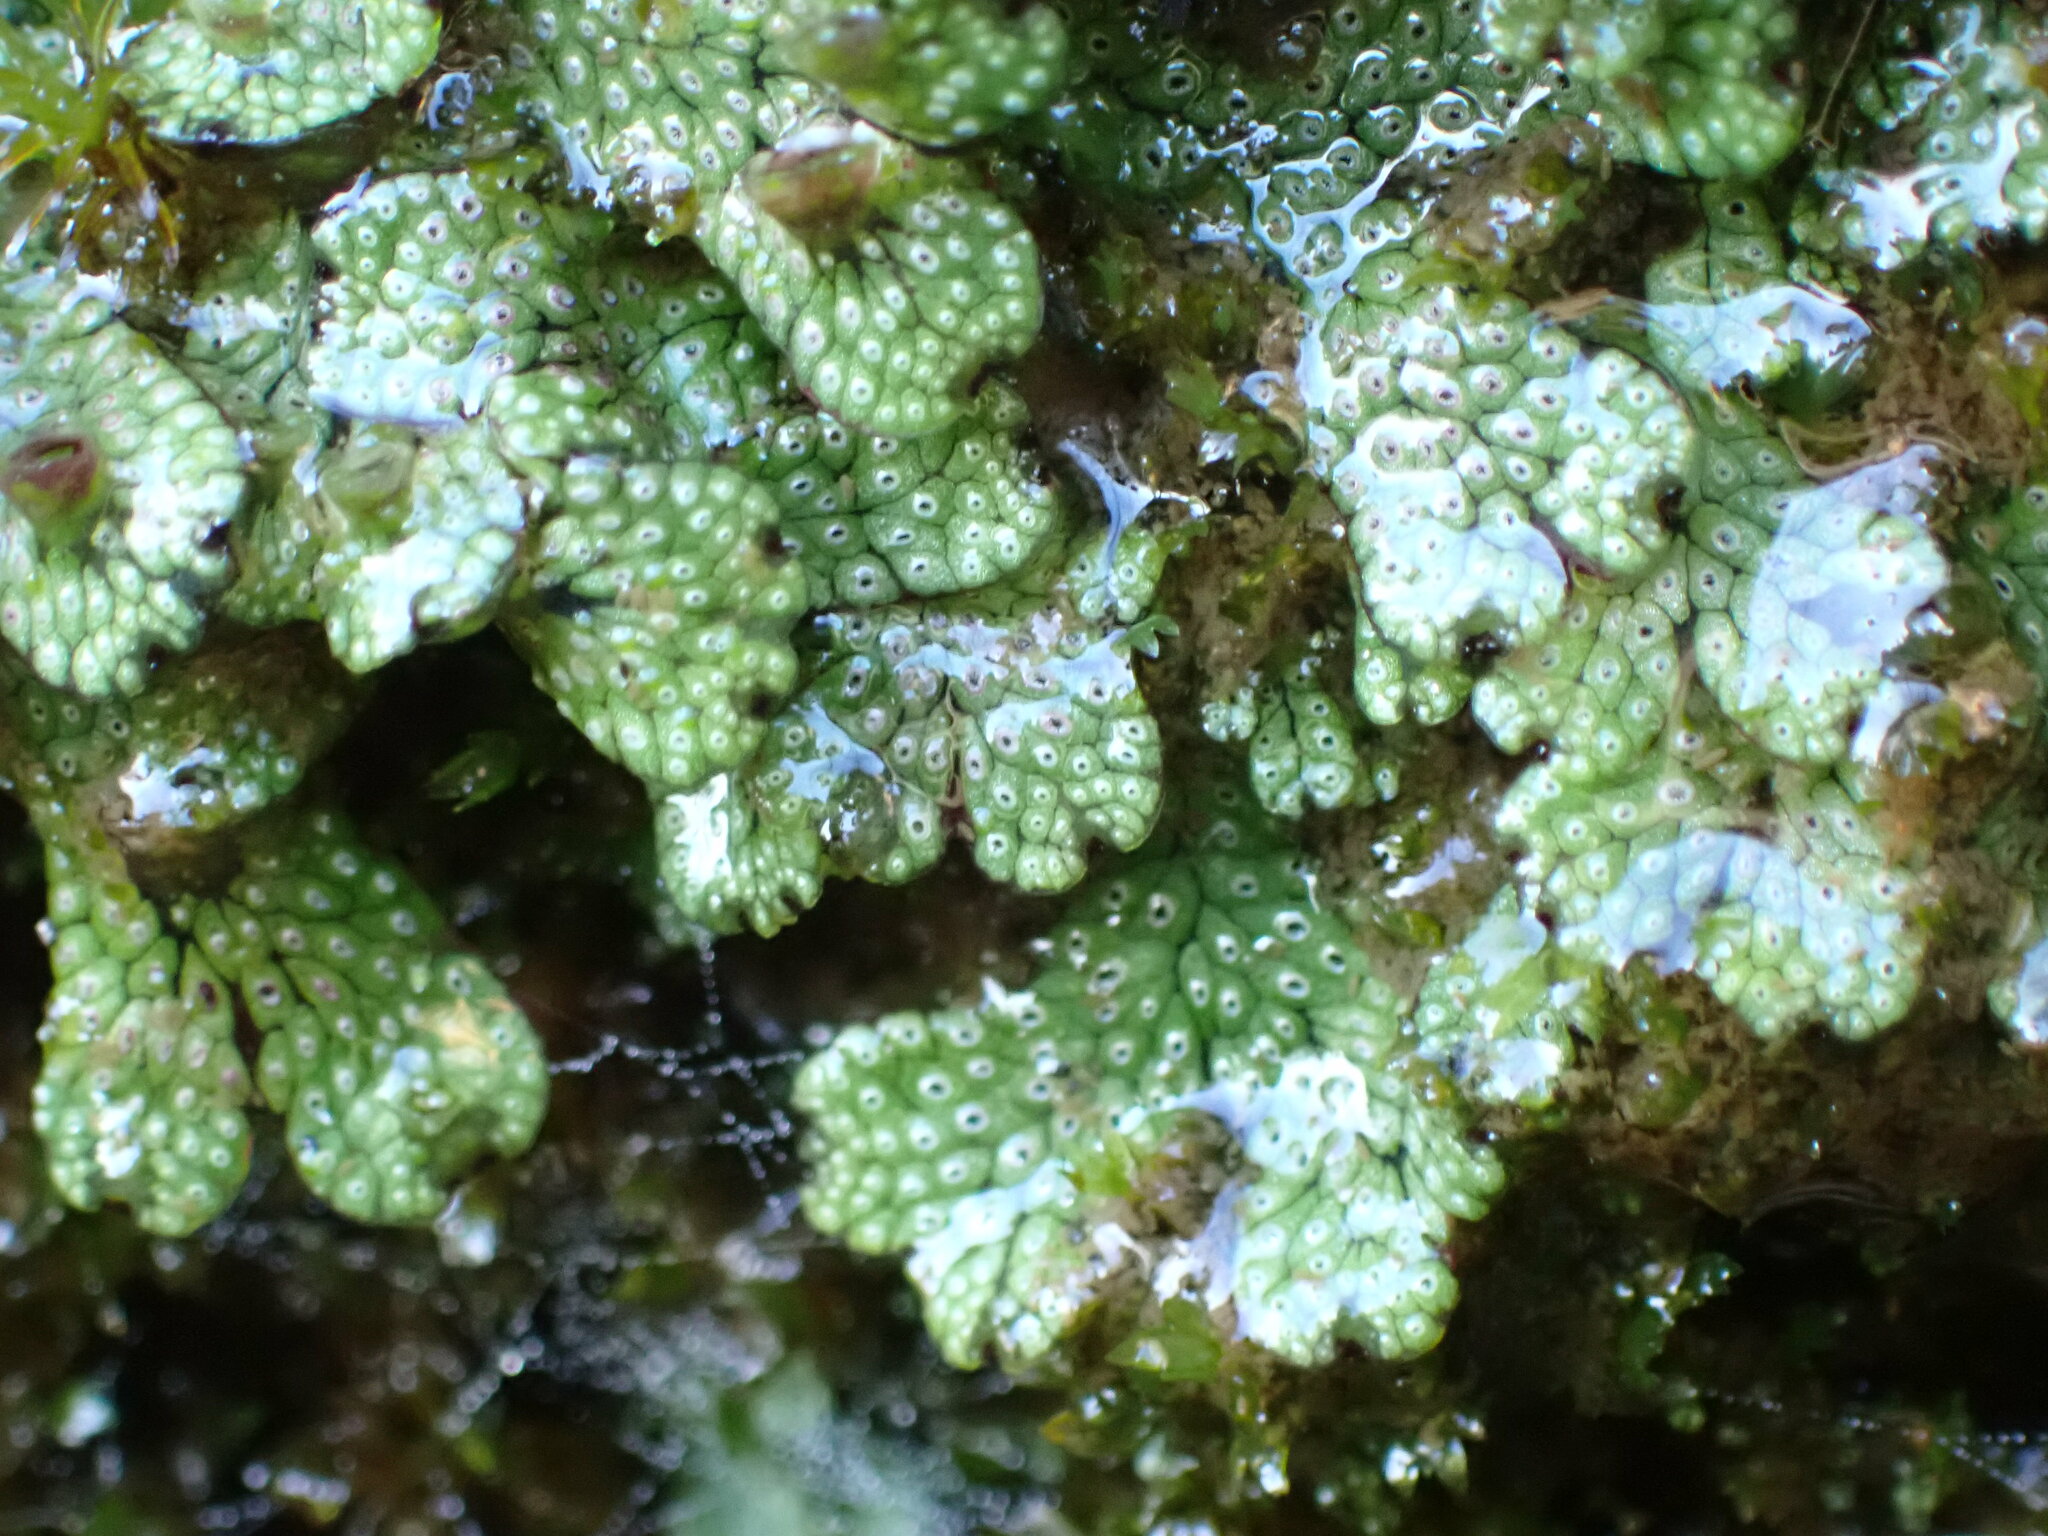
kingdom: Plantae
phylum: Marchantiophyta
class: Marchantiopsida
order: Marchantiales
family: Marchantiaceae
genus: Marchantia
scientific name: Marchantia macropora
